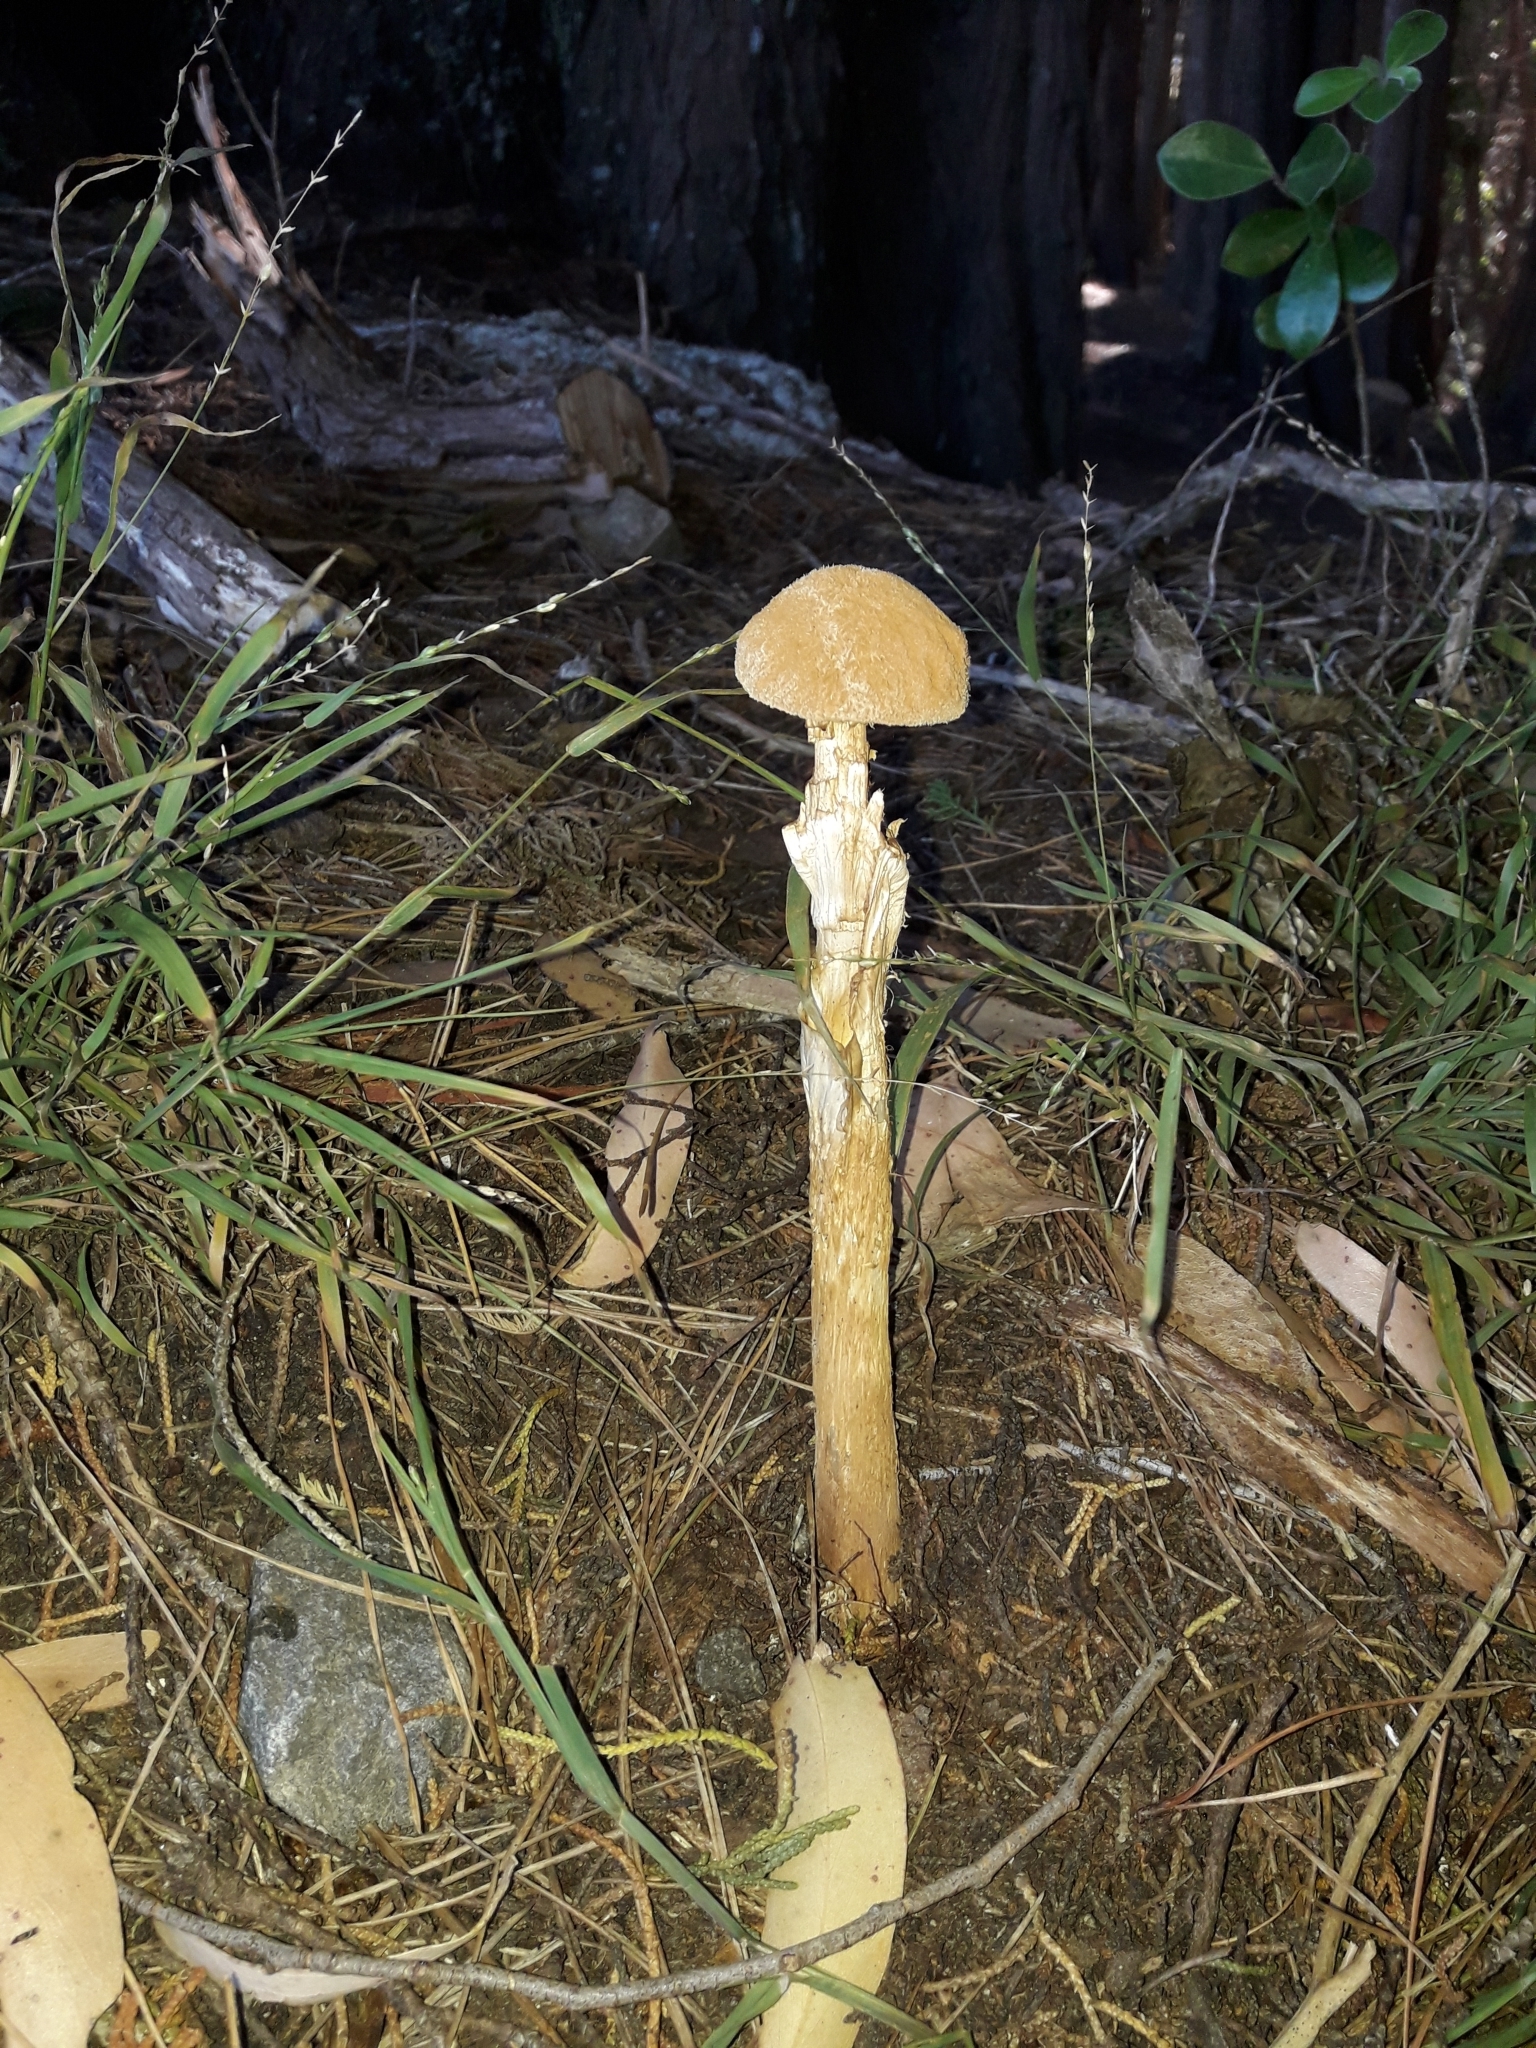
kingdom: Fungi
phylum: Basidiomycota
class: Agaricomycetes
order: Agaricales
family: Agaricaceae
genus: Battarrea
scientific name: Battarrea phalloides
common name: Sandy stiltball
